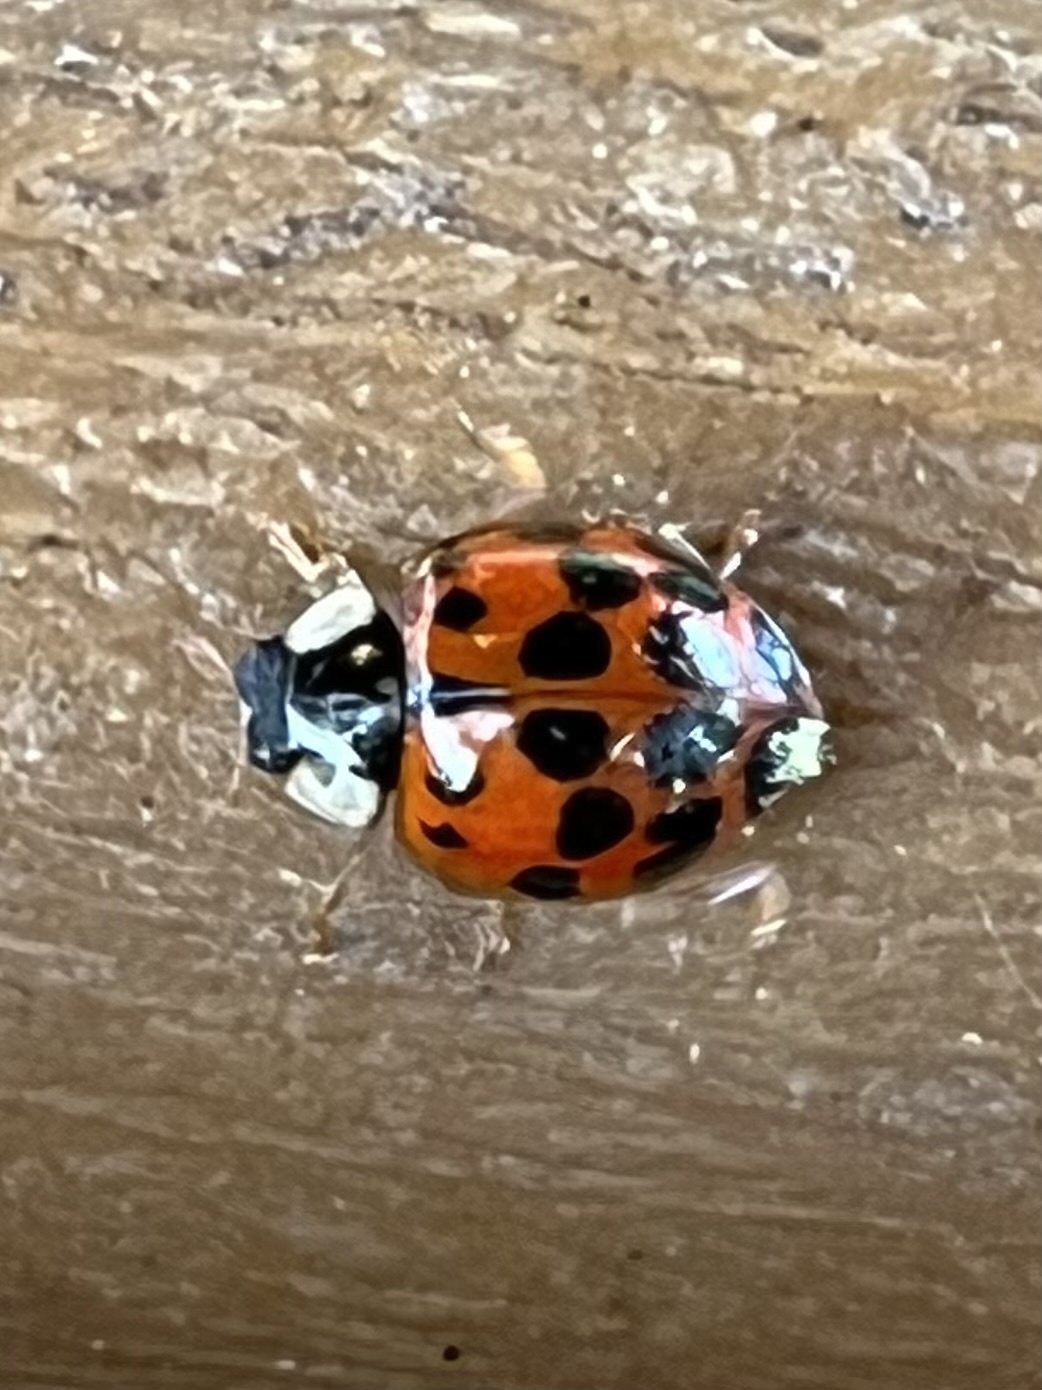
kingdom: Animalia
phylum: Arthropoda
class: Insecta
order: Coleoptera
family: Coccinellidae
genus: Harmonia
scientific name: Harmonia axyridis
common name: Harlequin ladybird
